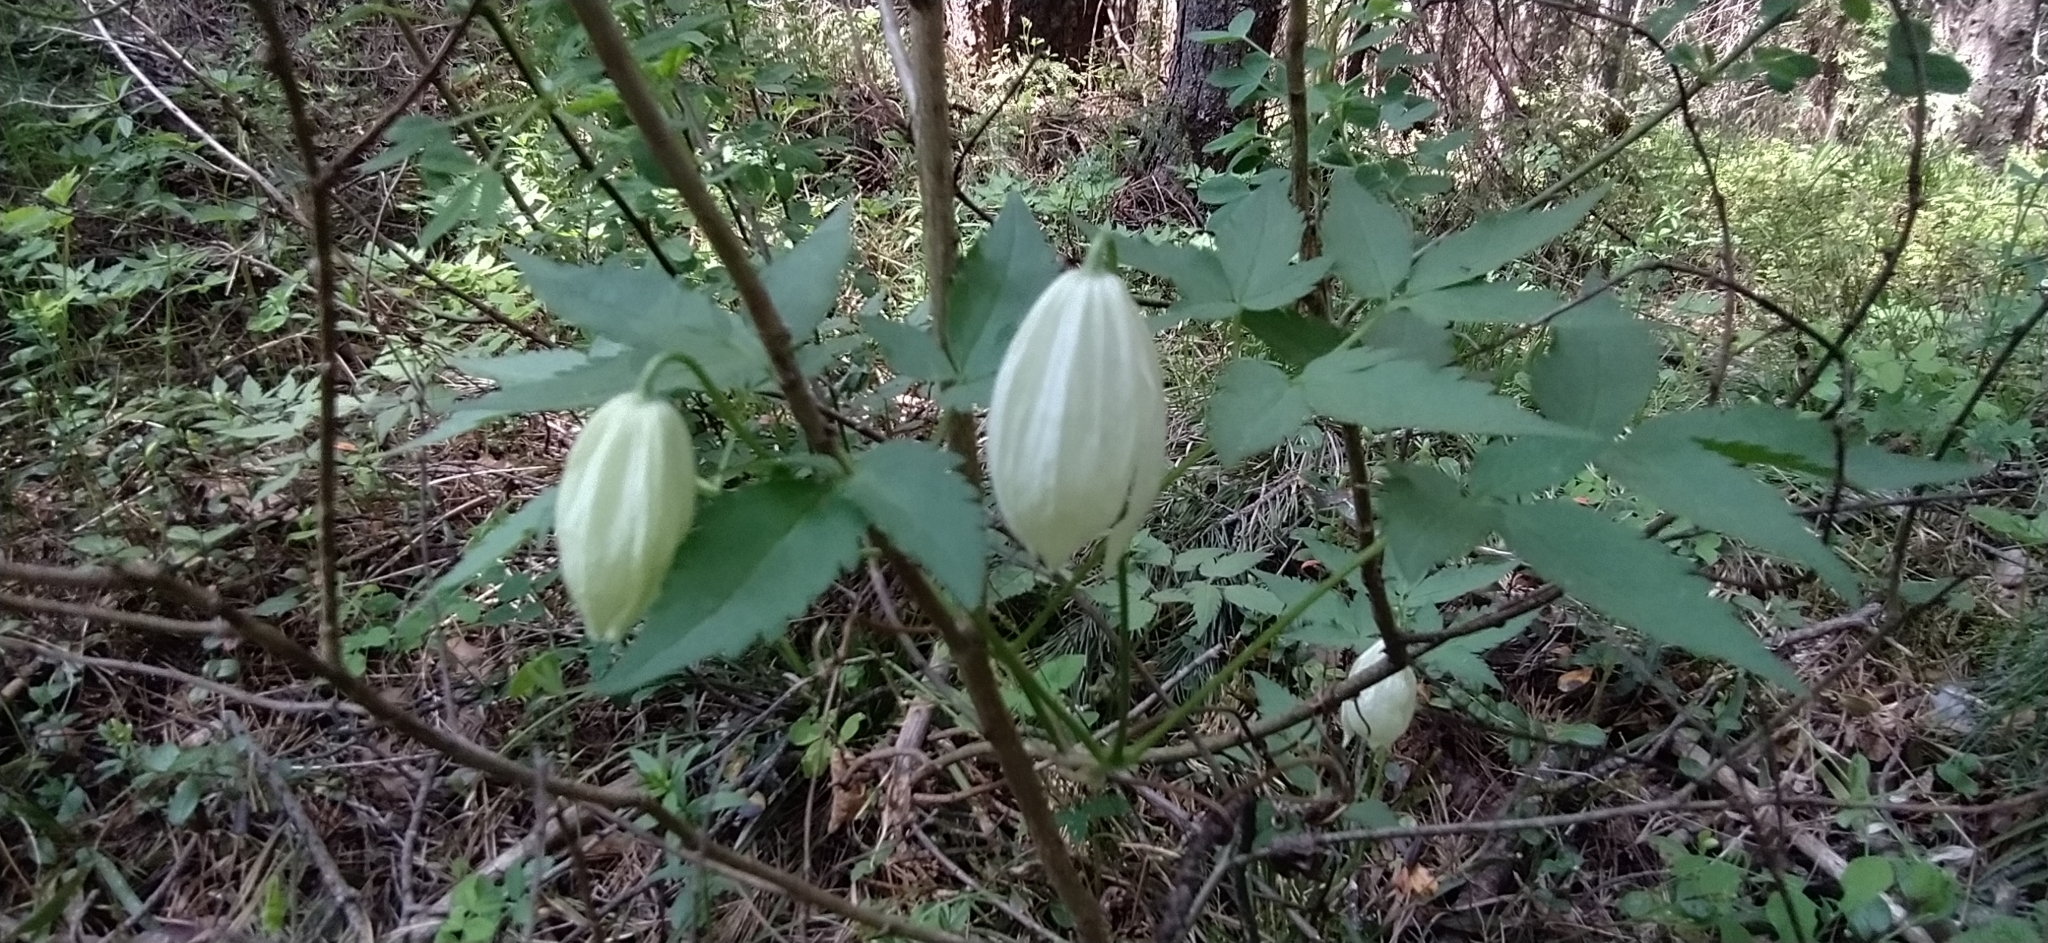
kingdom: Plantae
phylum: Tracheophyta
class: Magnoliopsida
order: Ranunculales
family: Ranunculaceae
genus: Clematis
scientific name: Clematis sibirica
